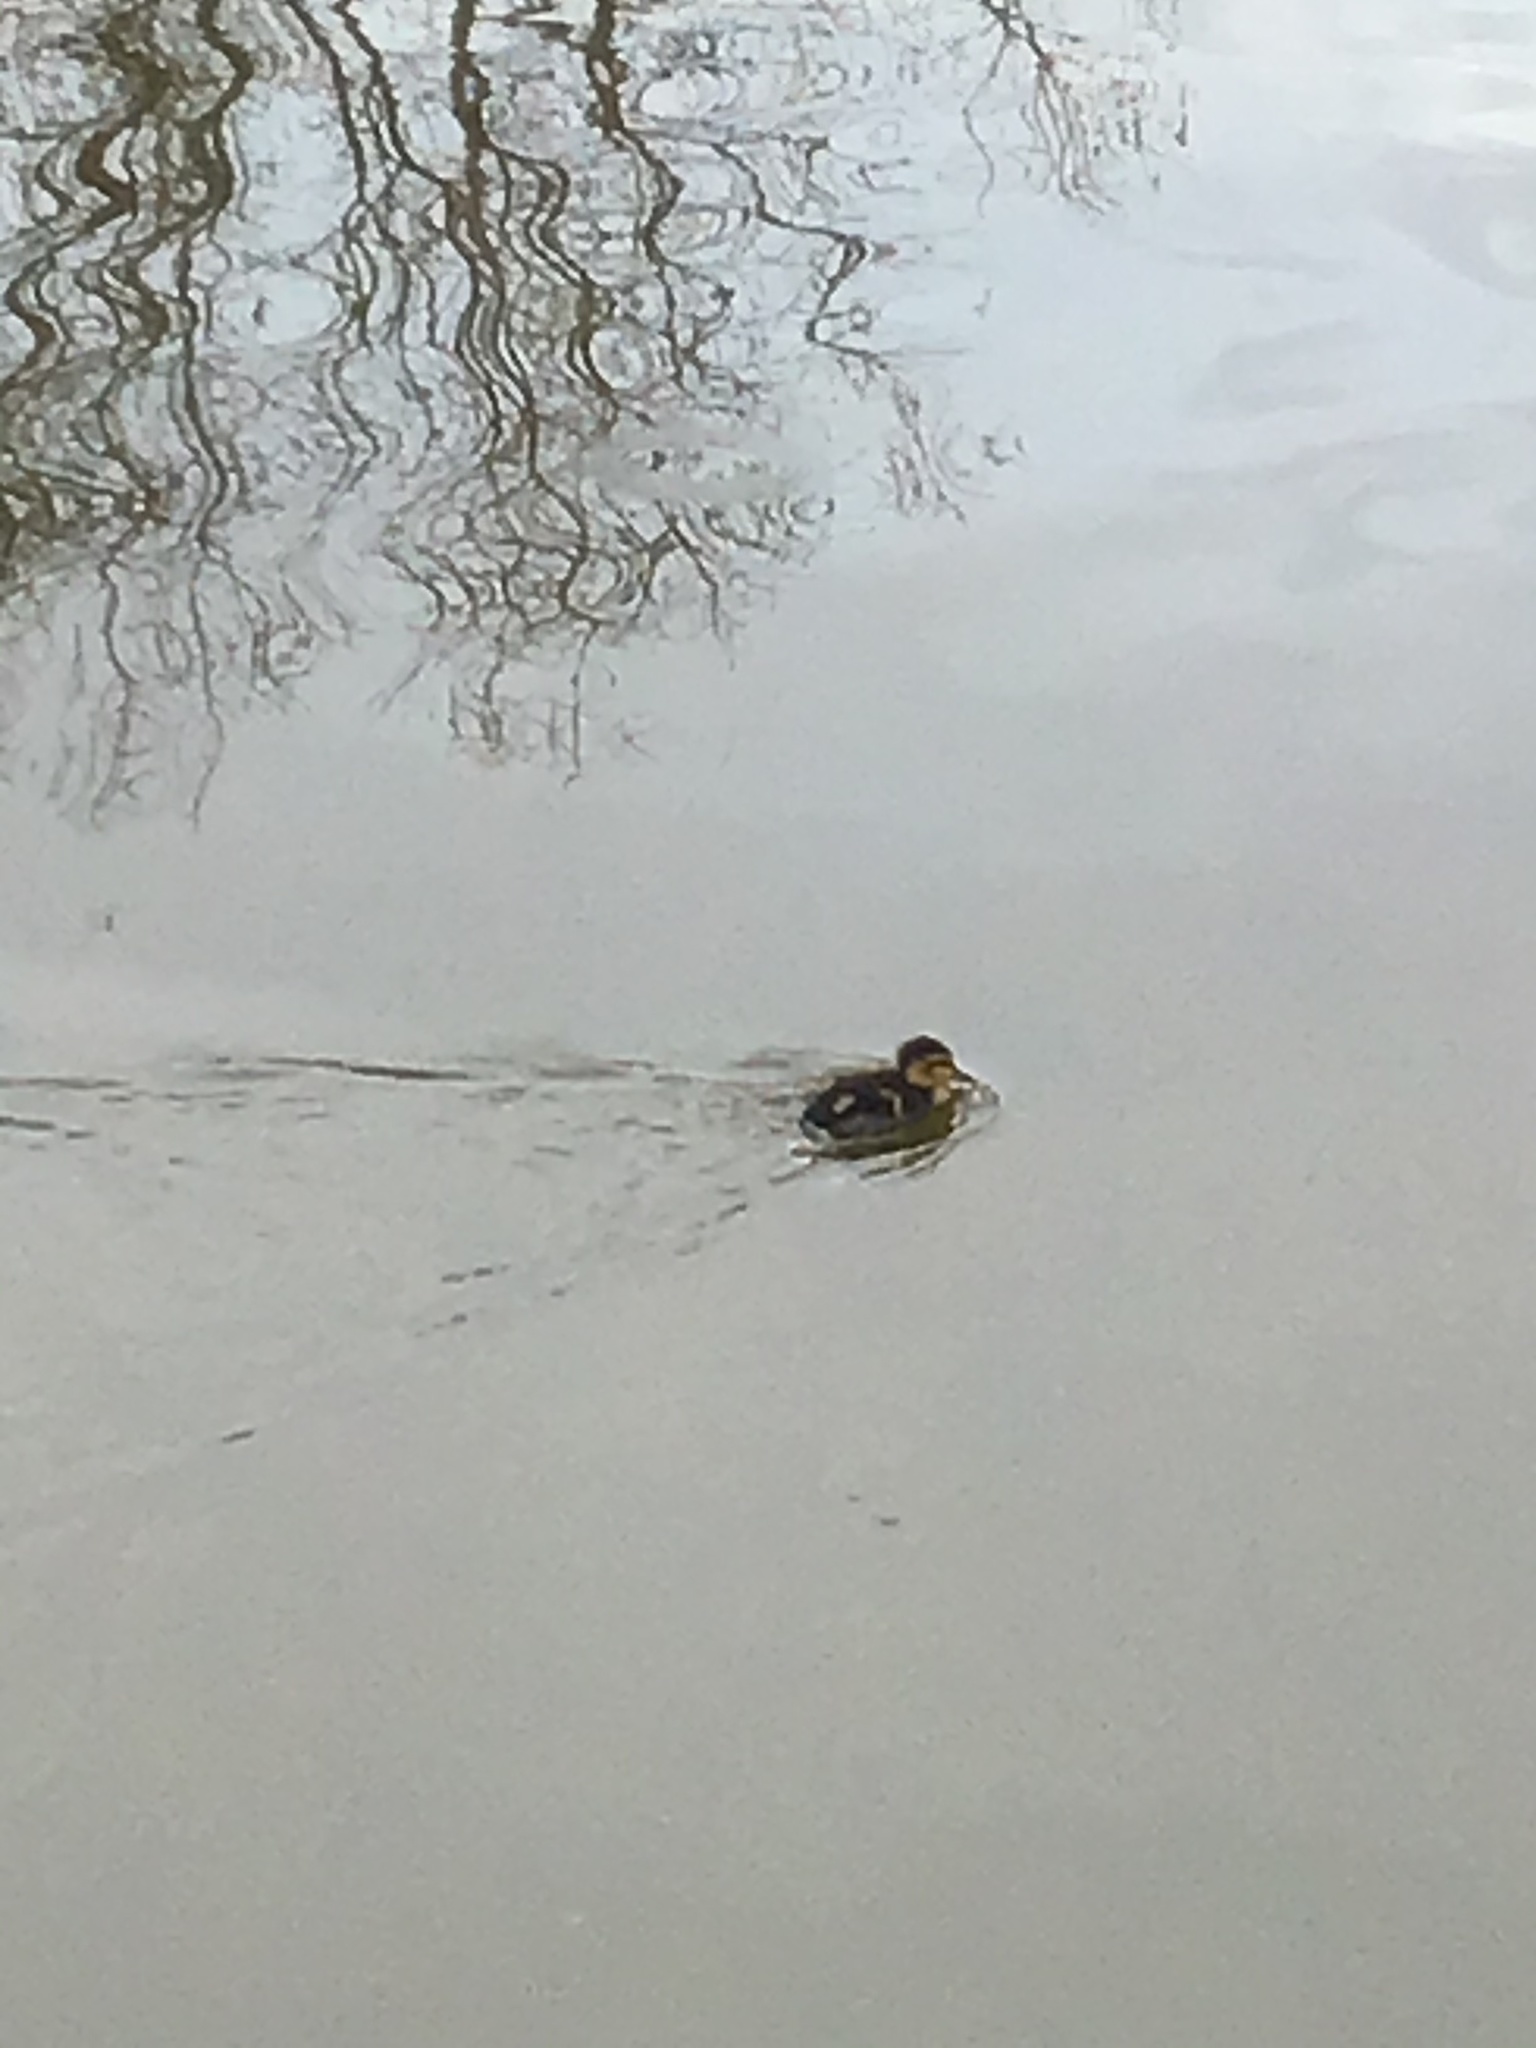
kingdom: Animalia
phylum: Chordata
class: Aves
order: Anseriformes
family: Anatidae
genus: Anas
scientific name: Anas platyrhynchos
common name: Mallard
